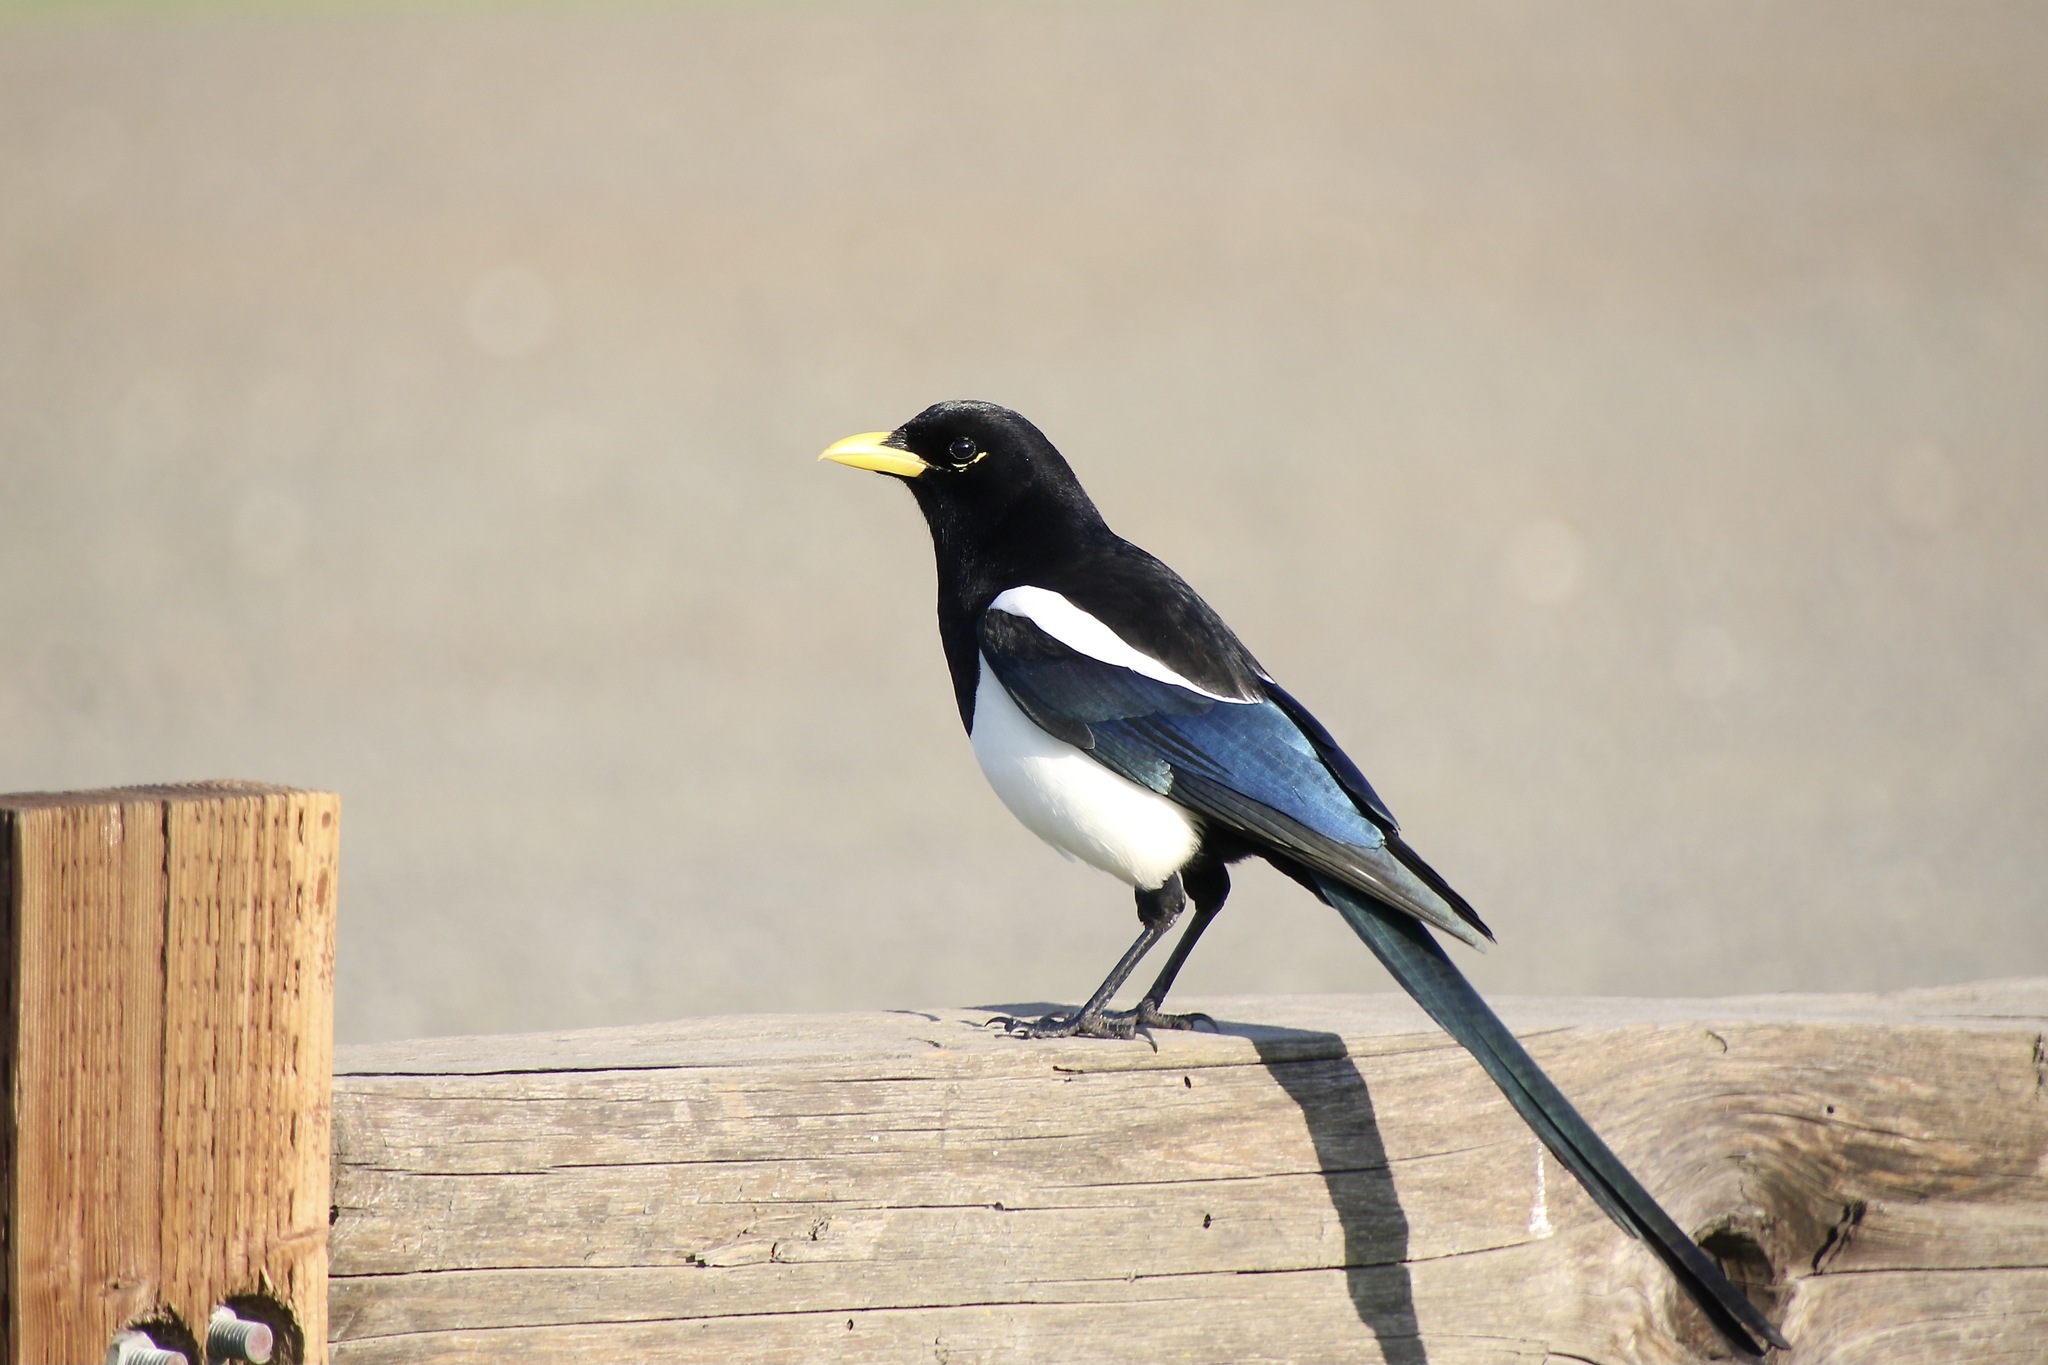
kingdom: Animalia
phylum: Chordata
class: Aves
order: Passeriformes
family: Corvidae
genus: Pica
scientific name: Pica nuttalli
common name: Yellow-billed magpie
